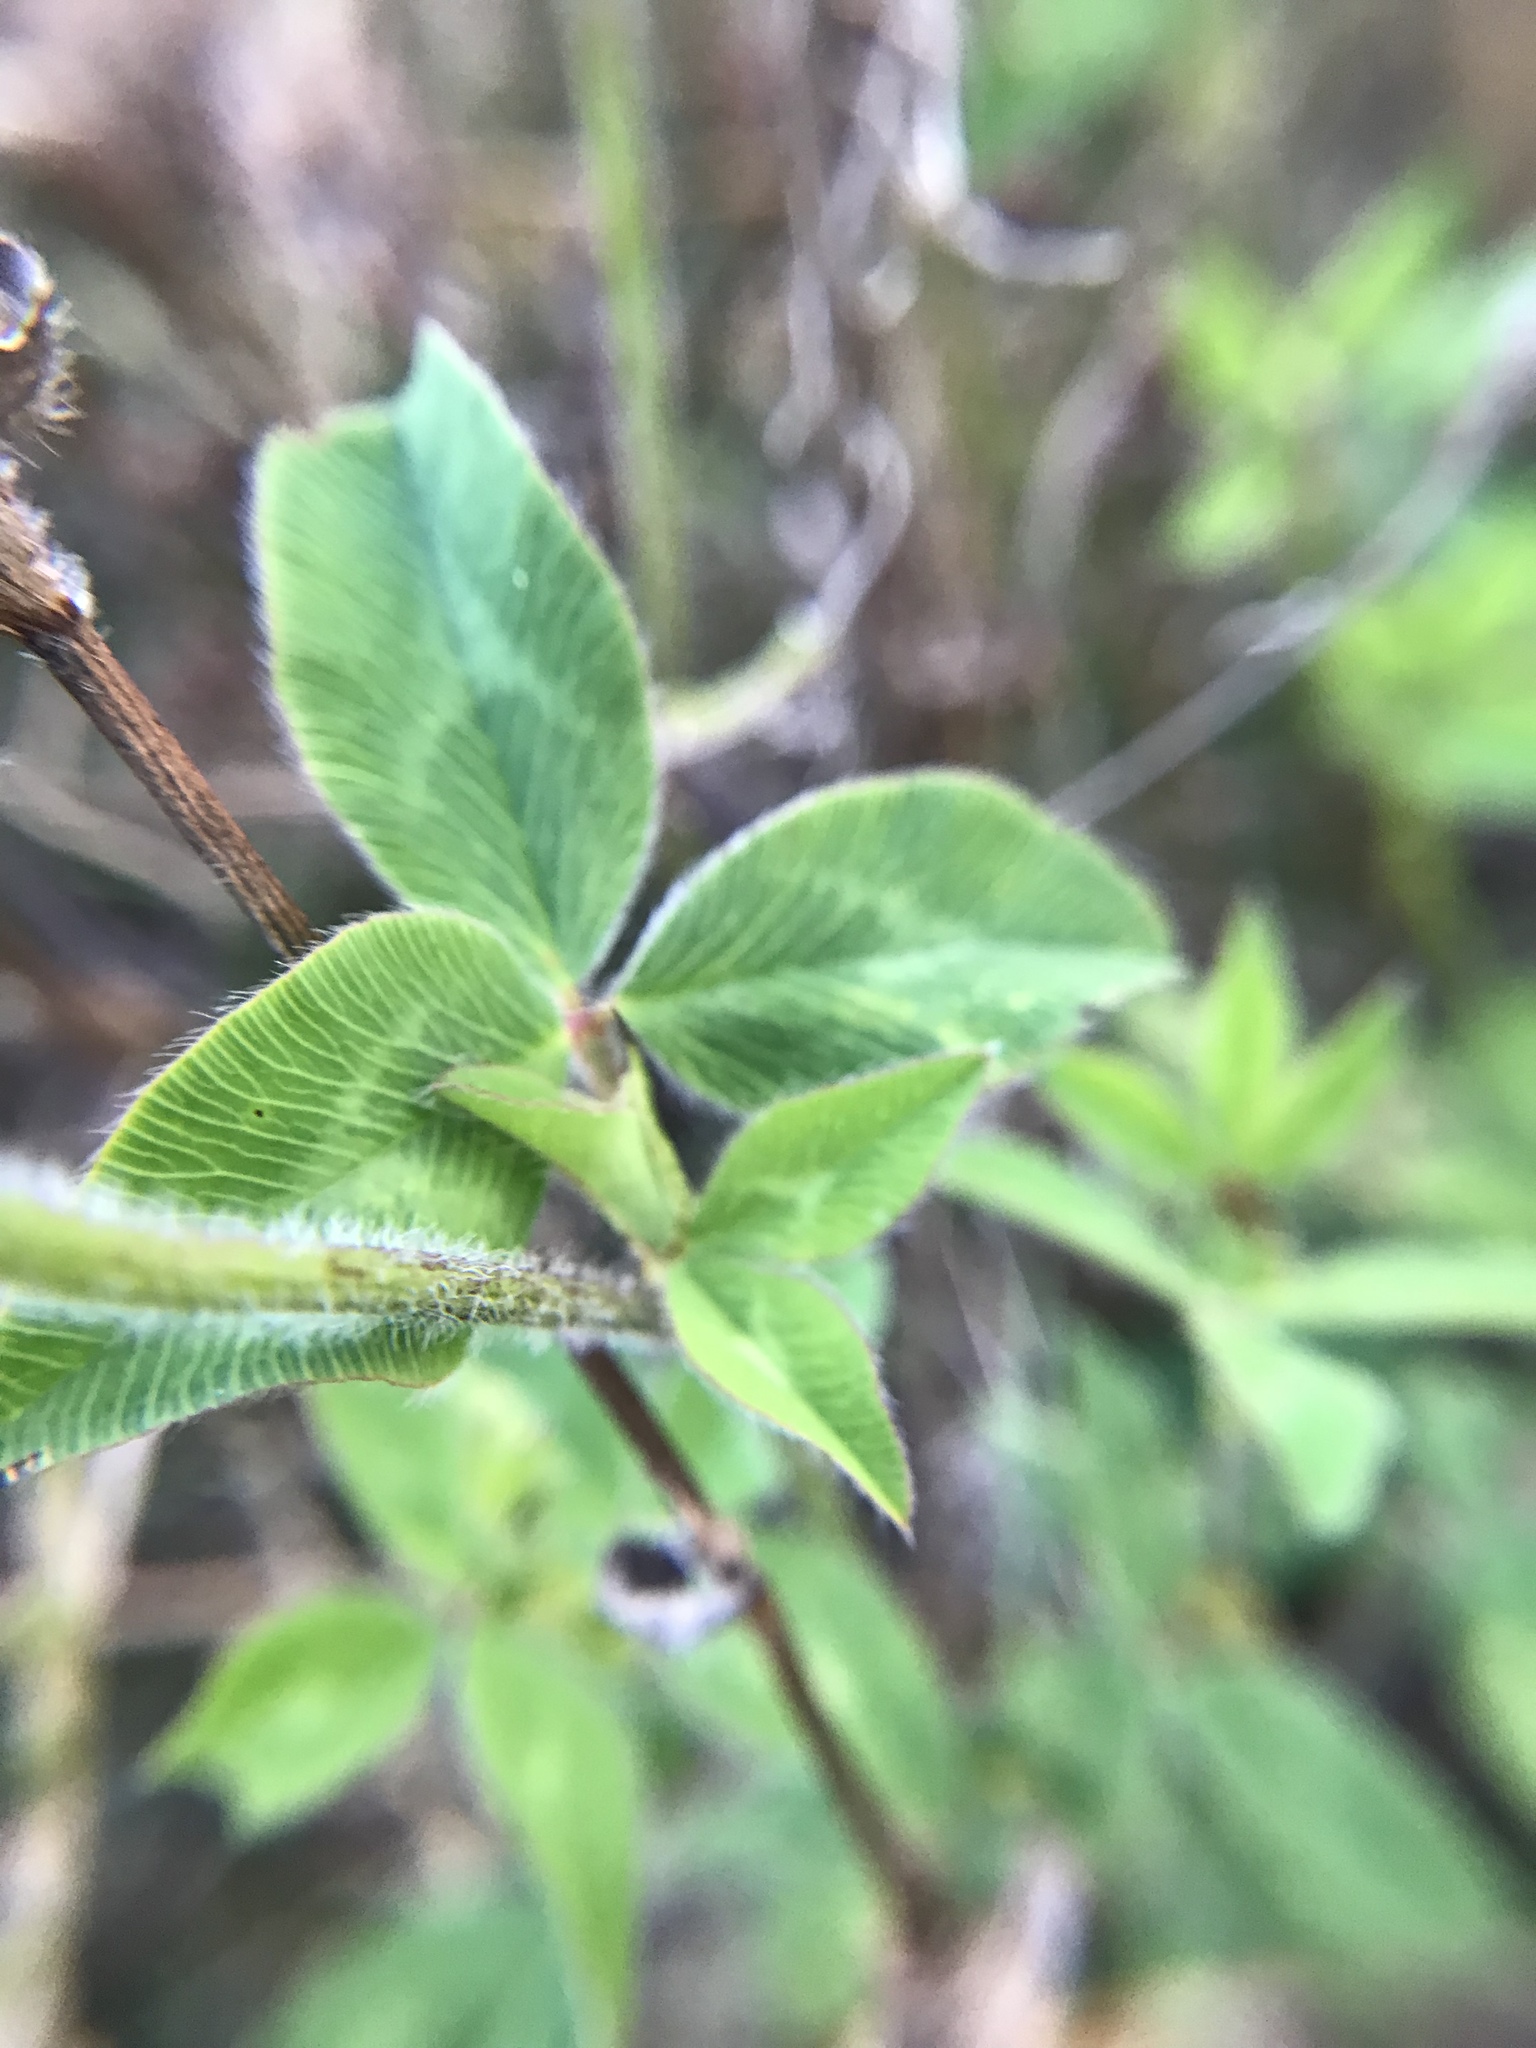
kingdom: Plantae
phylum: Tracheophyta
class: Magnoliopsida
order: Fabales
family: Fabaceae
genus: Trifolium
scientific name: Trifolium pratense
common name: Red clover
